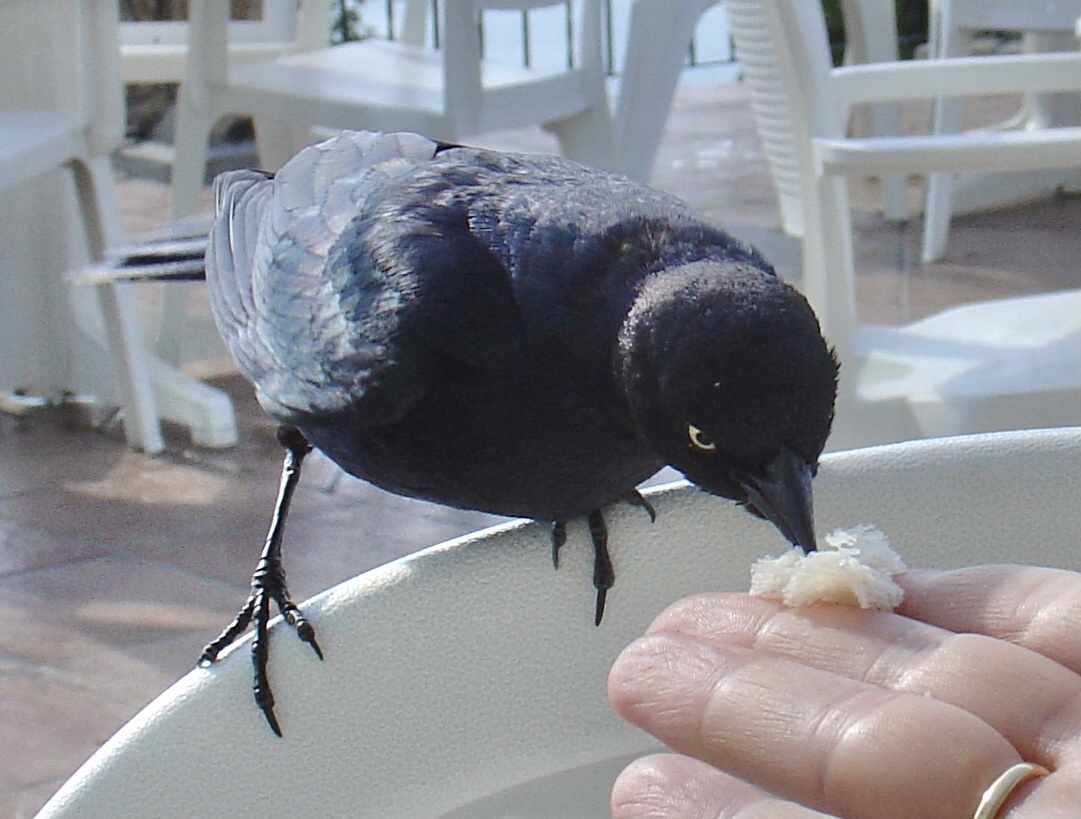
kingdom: Animalia
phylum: Chordata
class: Aves
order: Passeriformes
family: Icteridae
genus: Euphagus
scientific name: Euphagus cyanocephalus
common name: Brewer's blackbird
